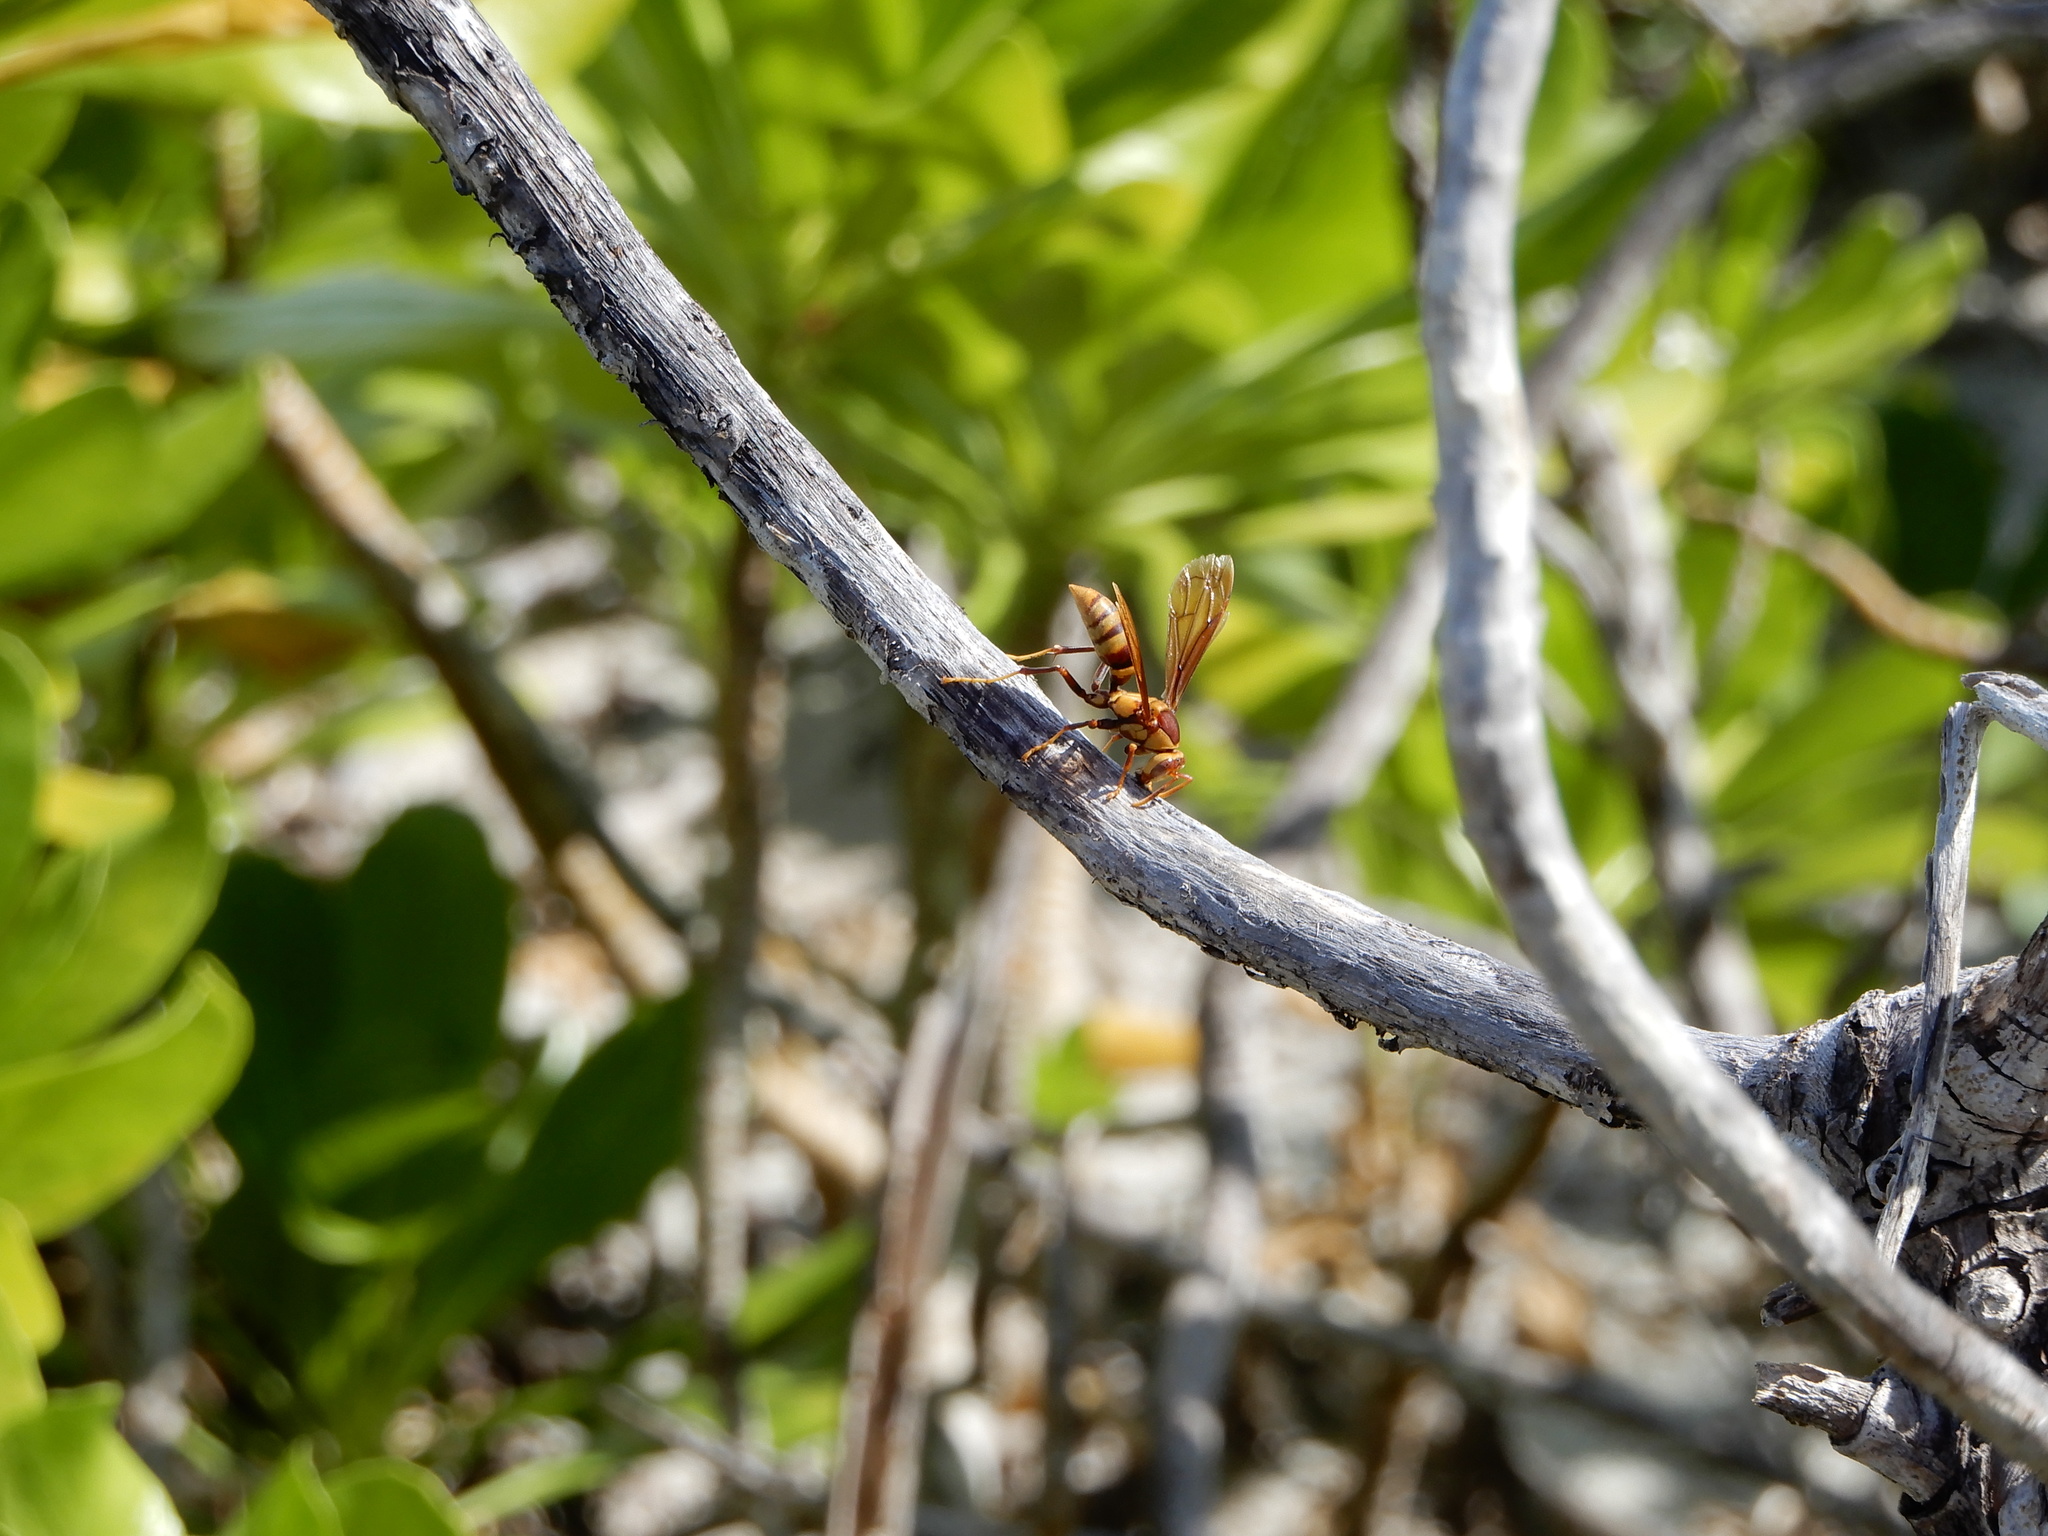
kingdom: Animalia
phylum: Arthropoda
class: Insecta
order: Hymenoptera
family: Eumenidae
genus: Polistes
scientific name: Polistes major
